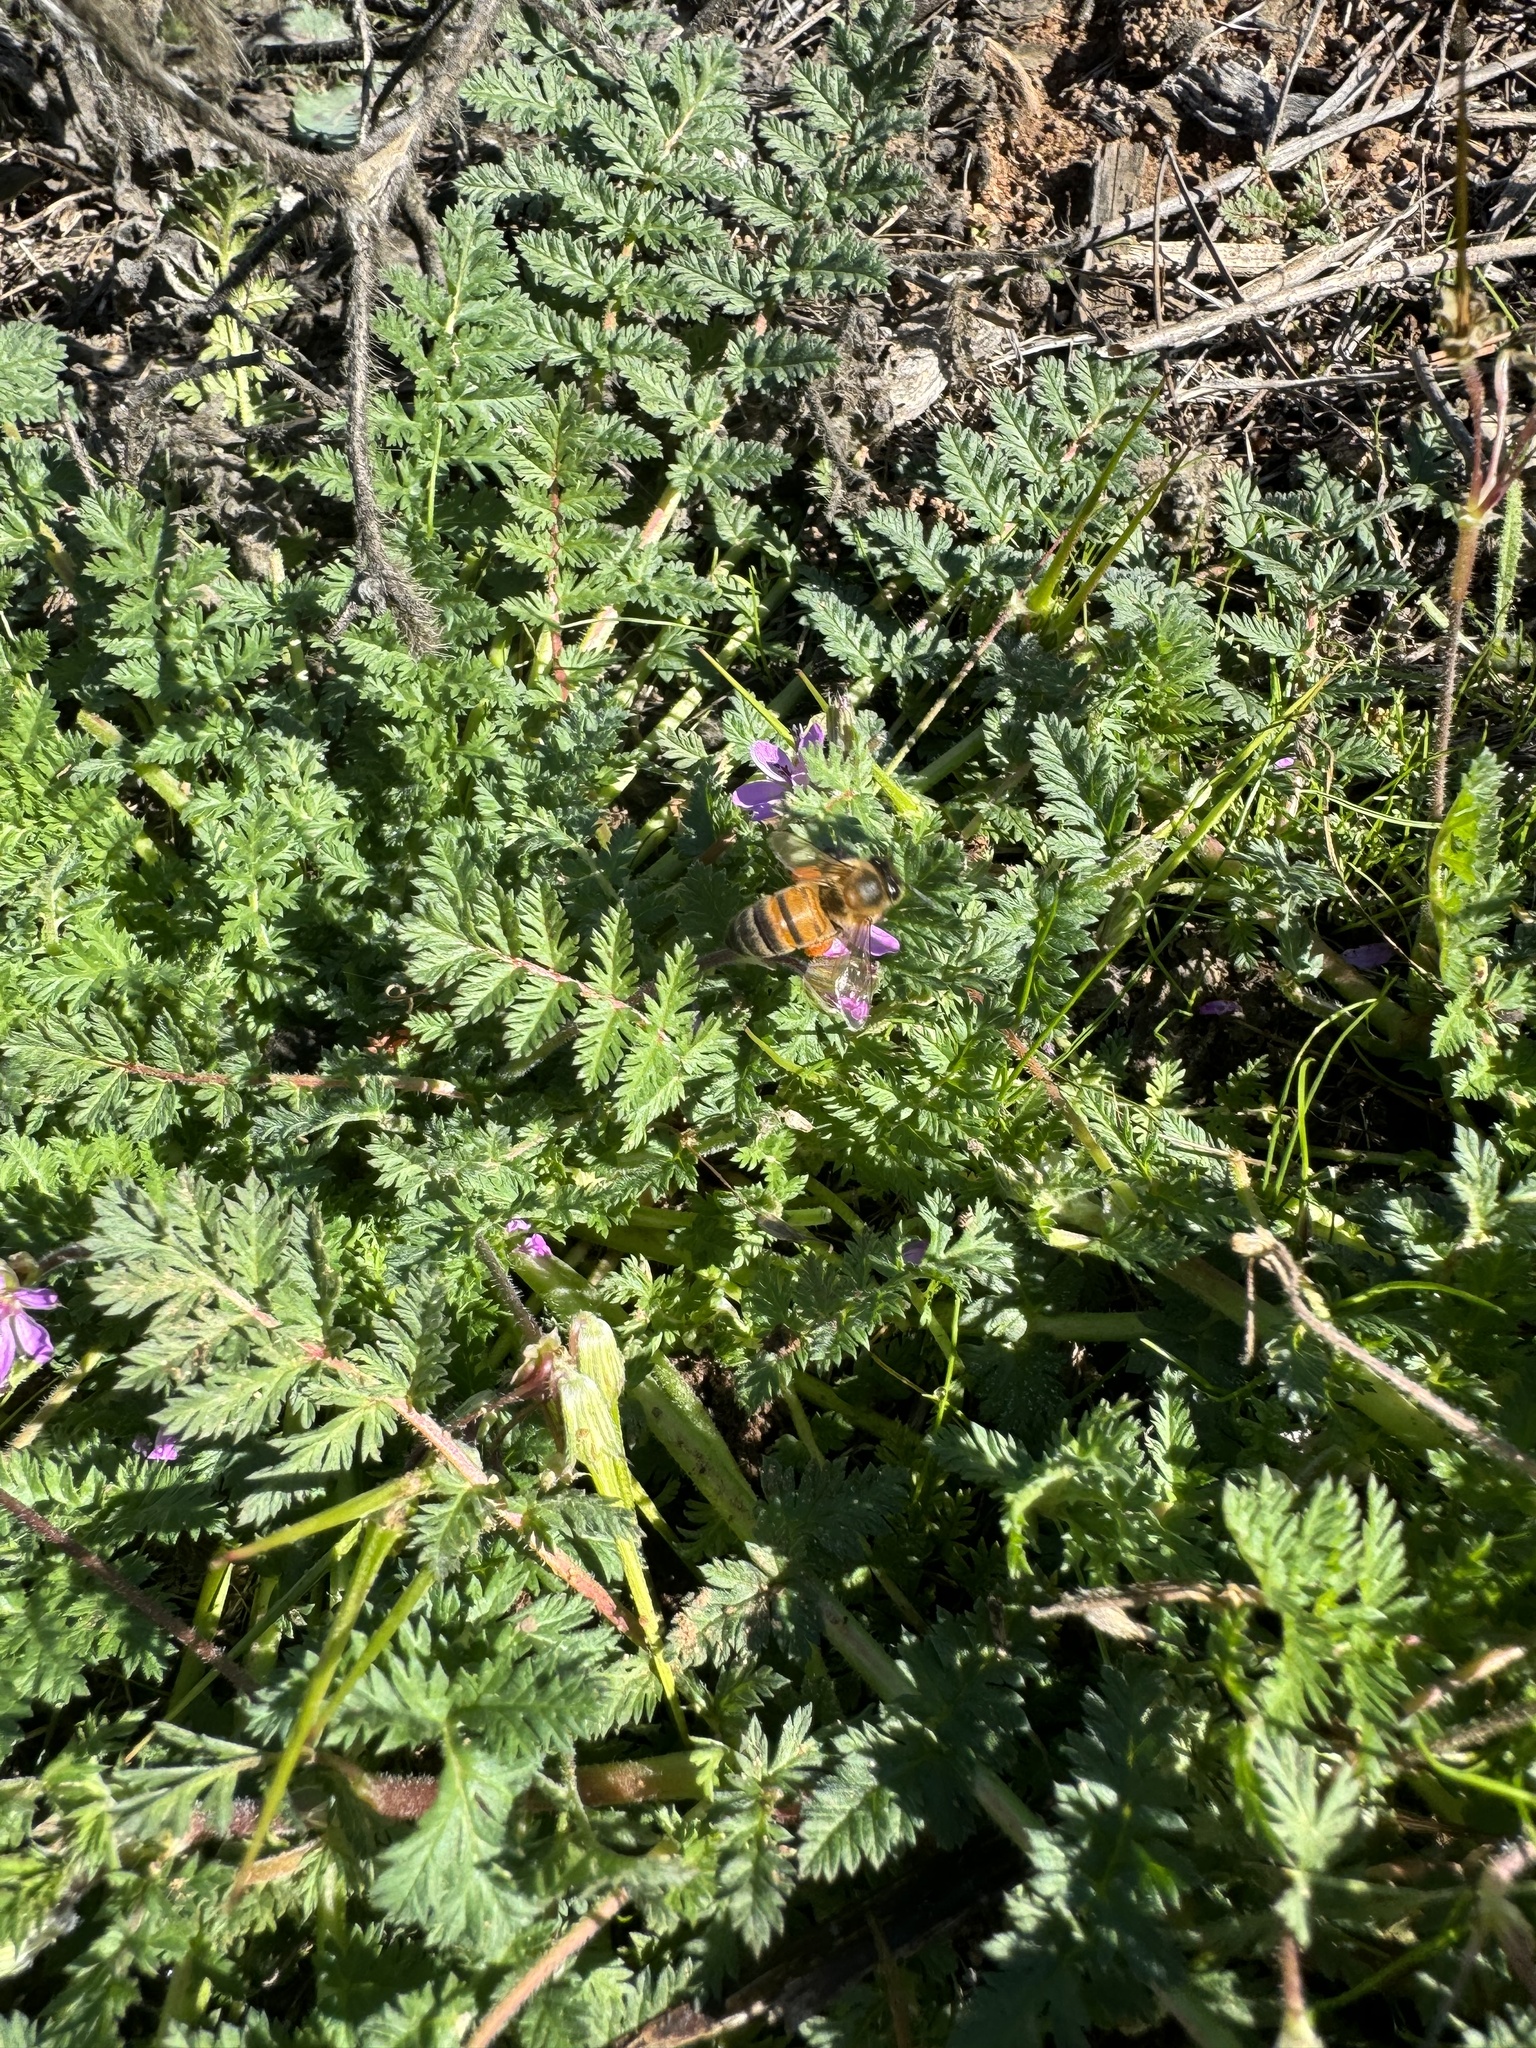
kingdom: Animalia
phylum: Arthropoda
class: Insecta
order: Hymenoptera
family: Apidae
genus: Apis
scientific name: Apis mellifera
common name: Honey bee
